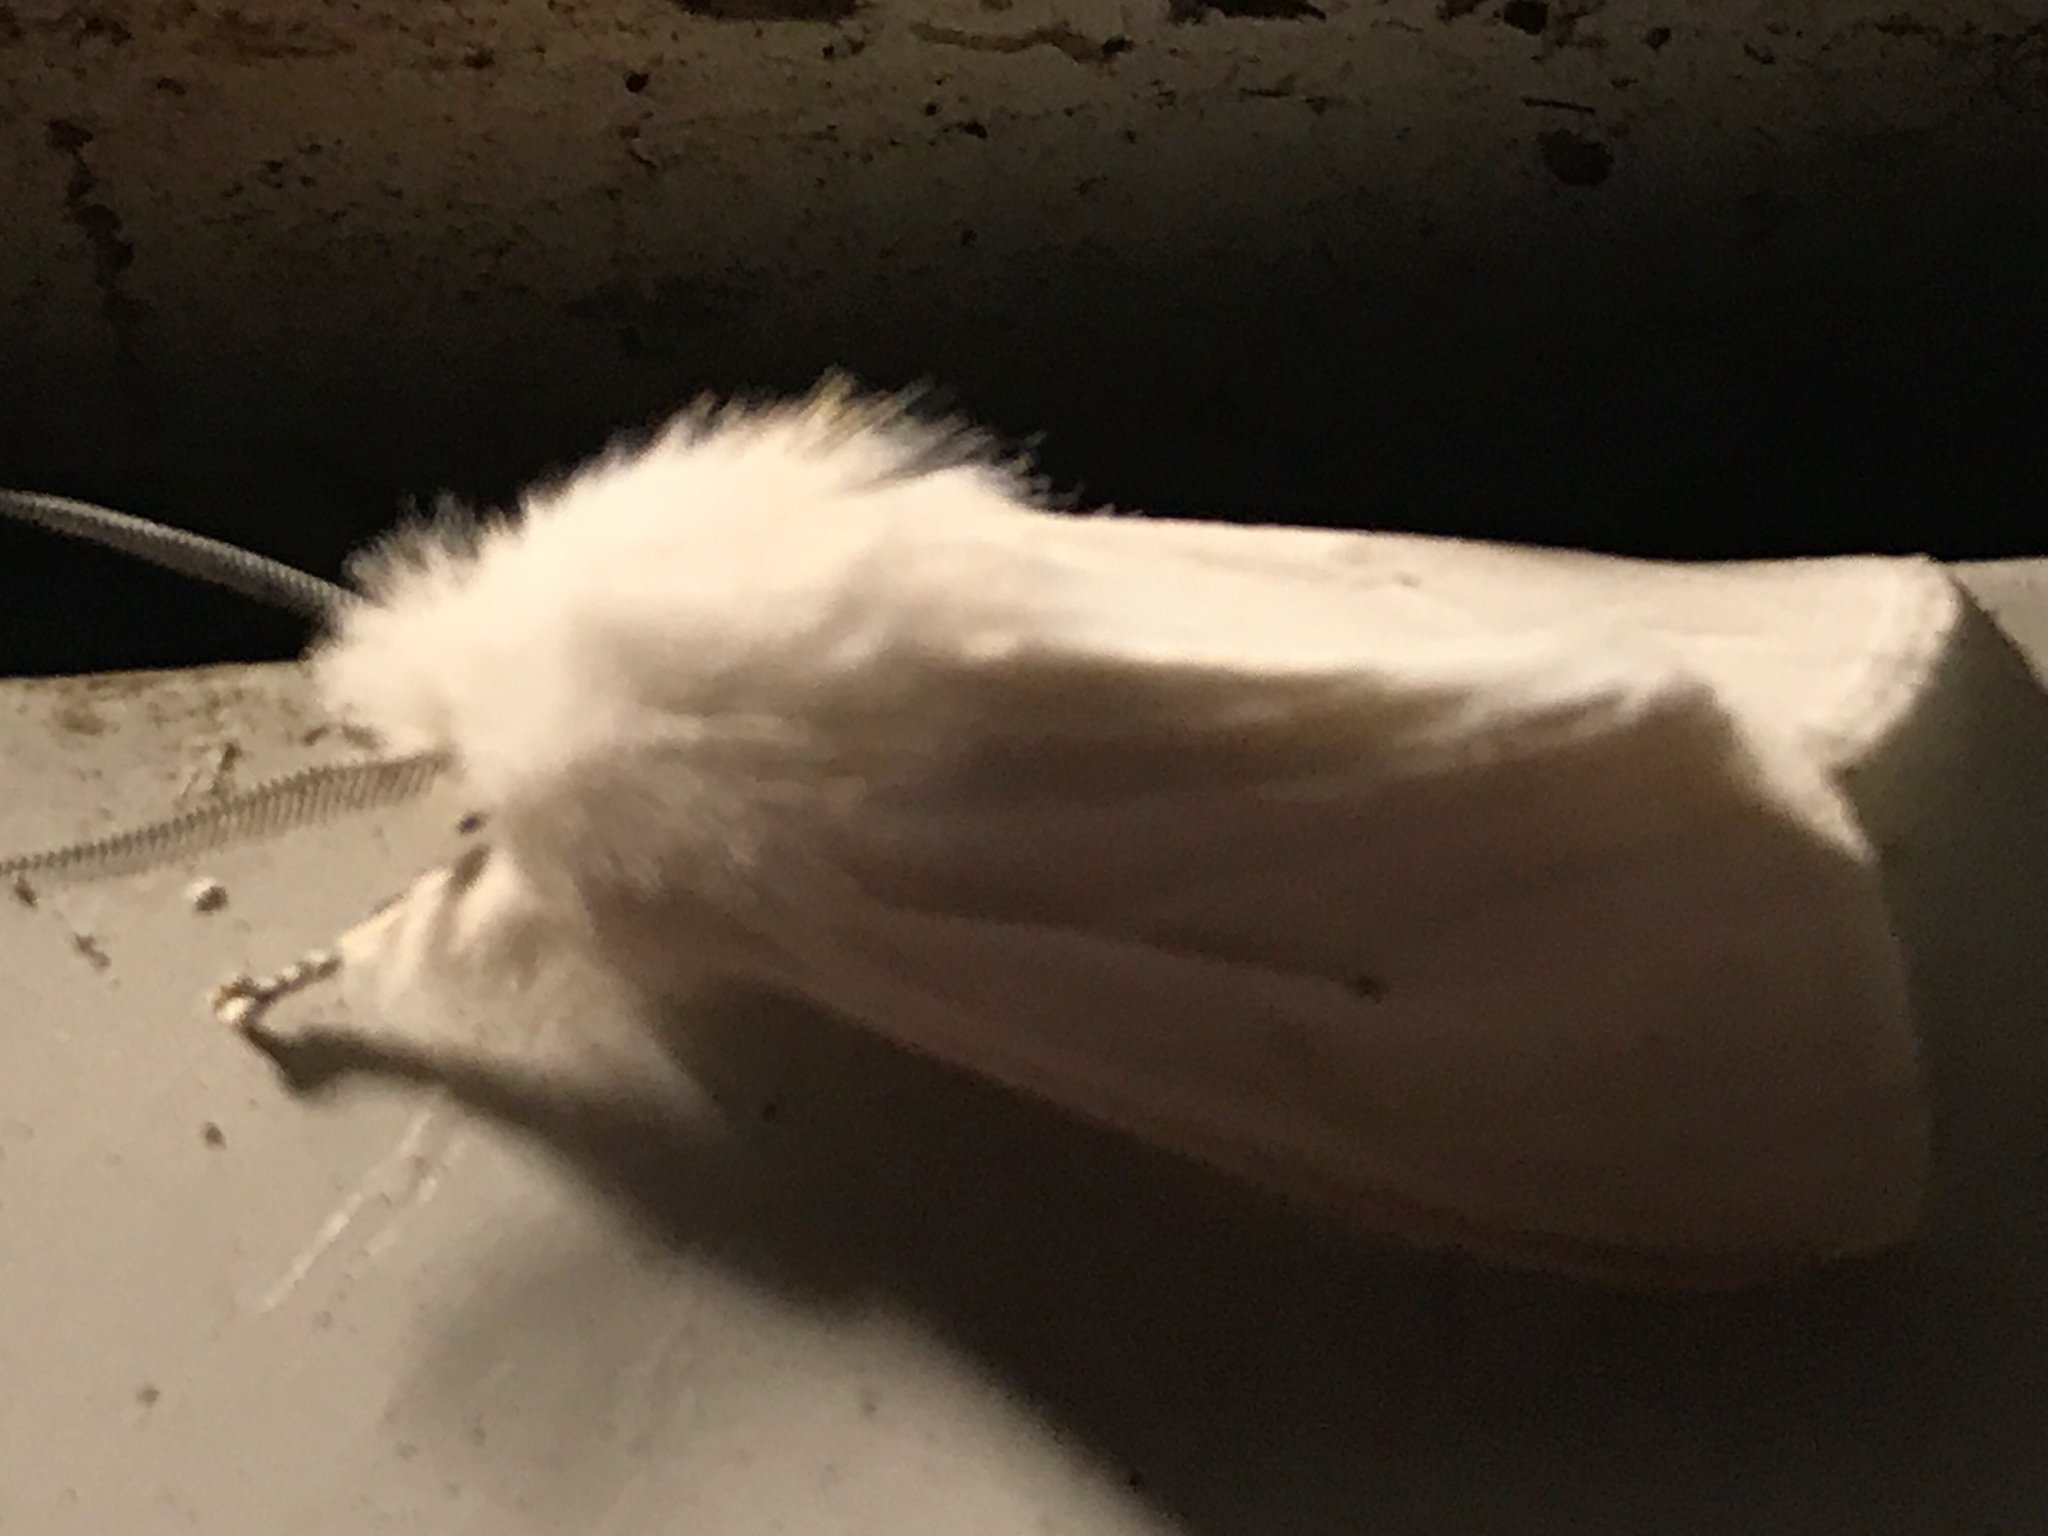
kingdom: Animalia
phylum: Arthropoda
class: Insecta
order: Lepidoptera
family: Erebidae
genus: Spilosoma
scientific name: Spilosoma virginica
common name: Virginia tiger moth
